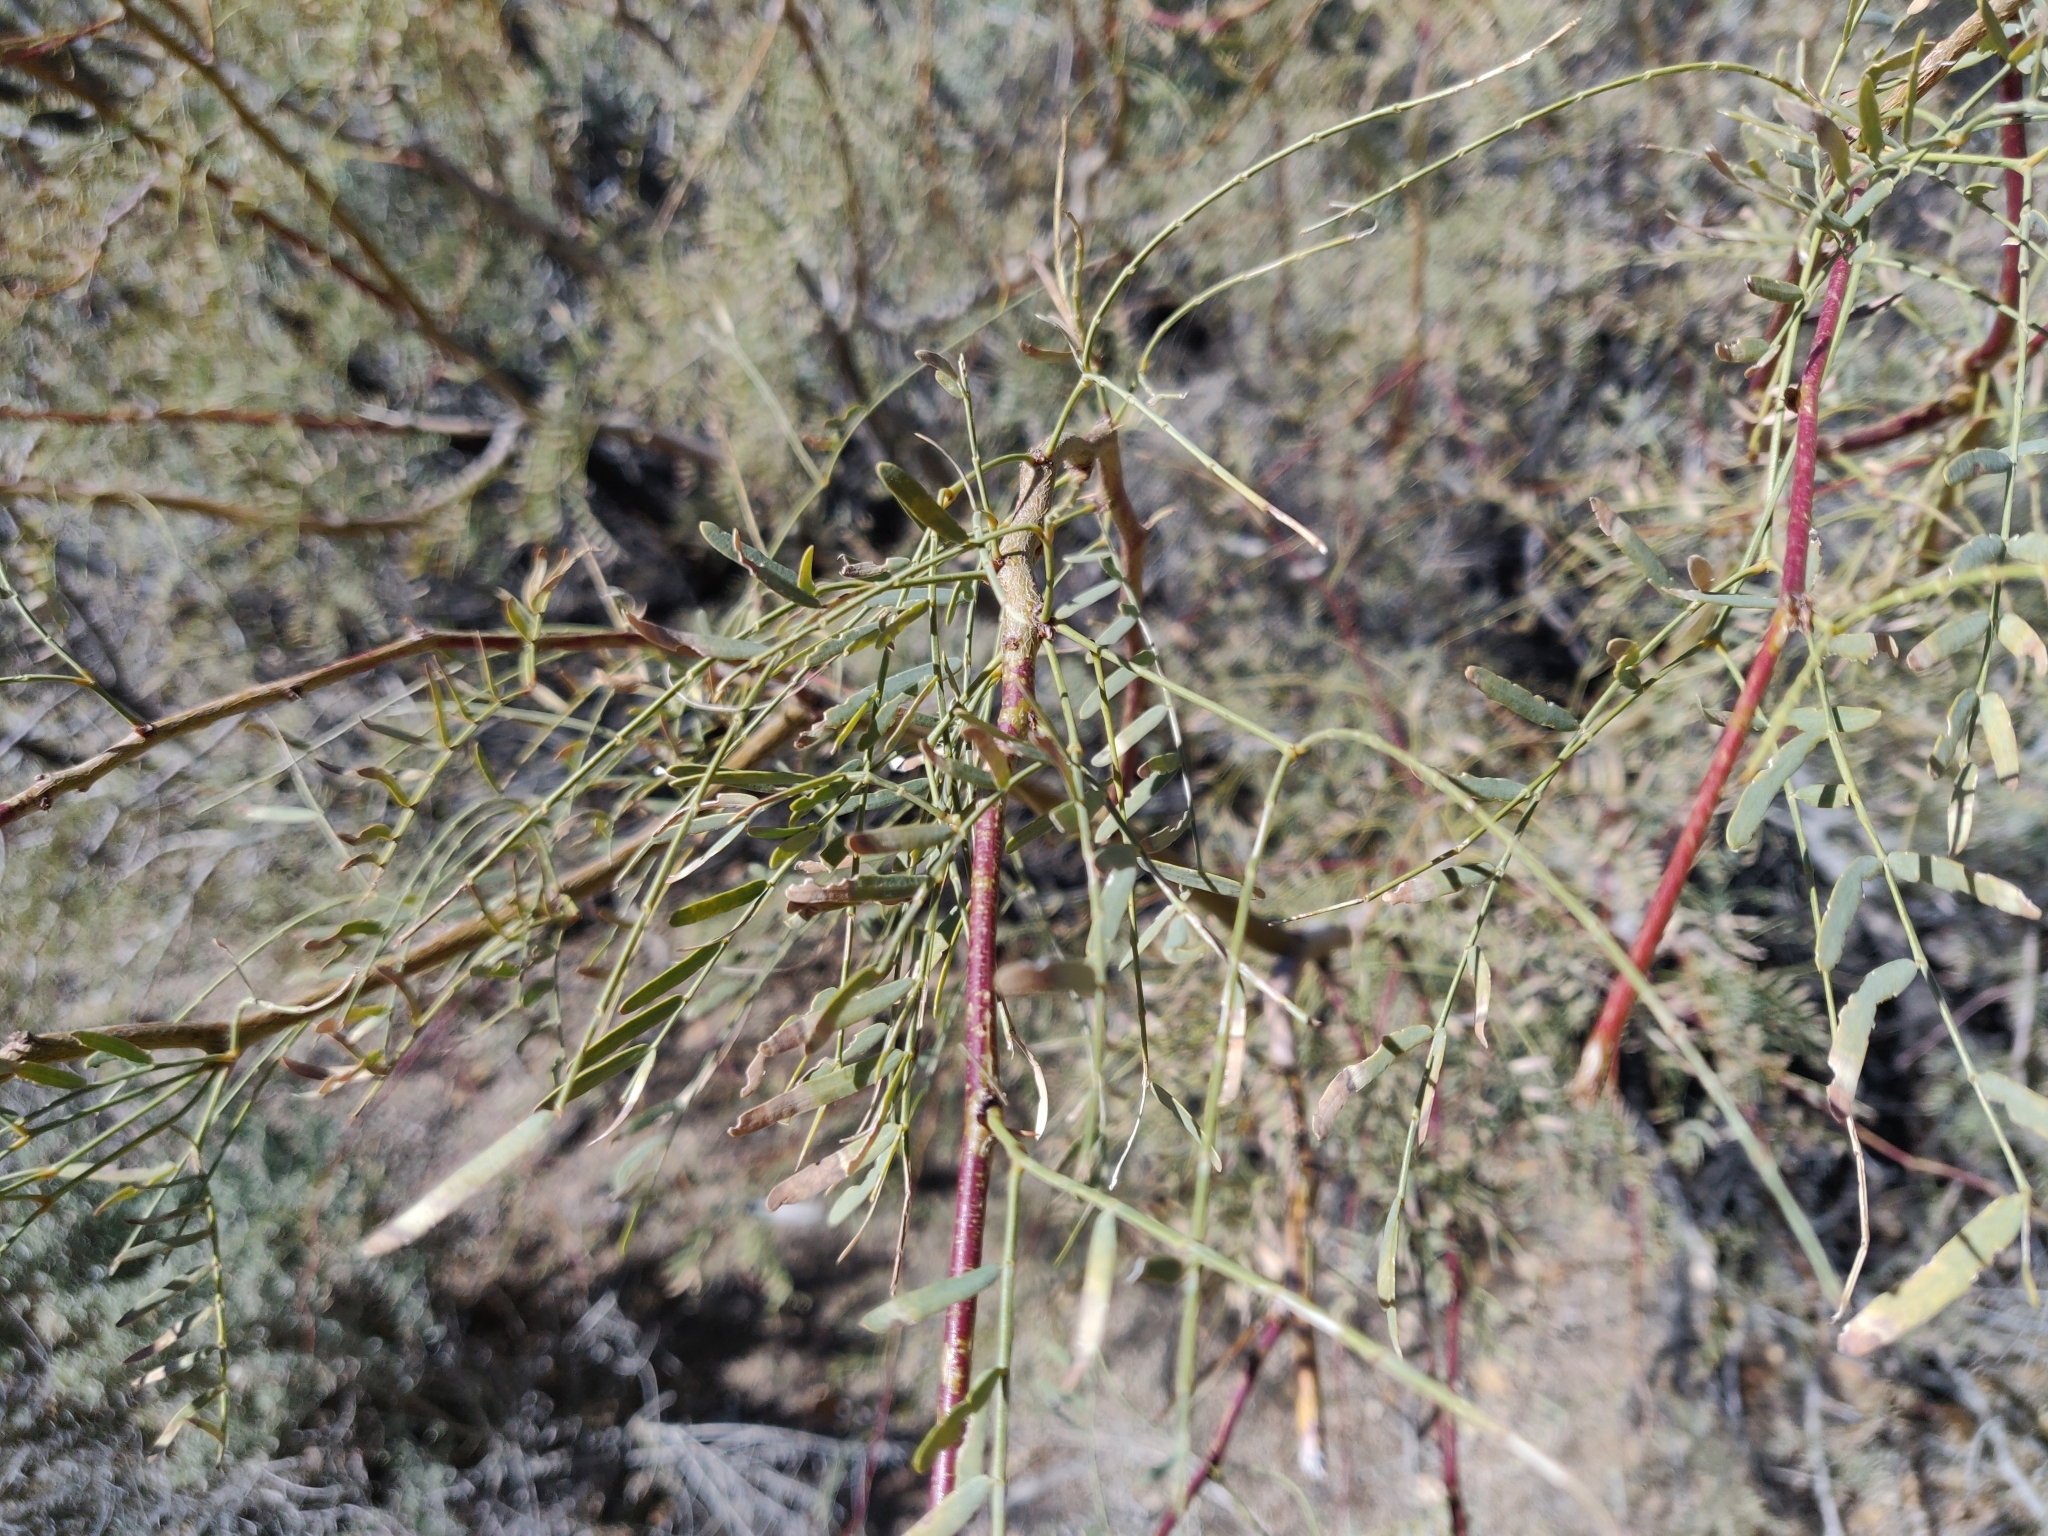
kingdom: Plantae
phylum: Tracheophyta
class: Magnoliopsida
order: Fabales
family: Fabaceae
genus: Prosopis
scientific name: Prosopis pubescens
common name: Screw-bean
